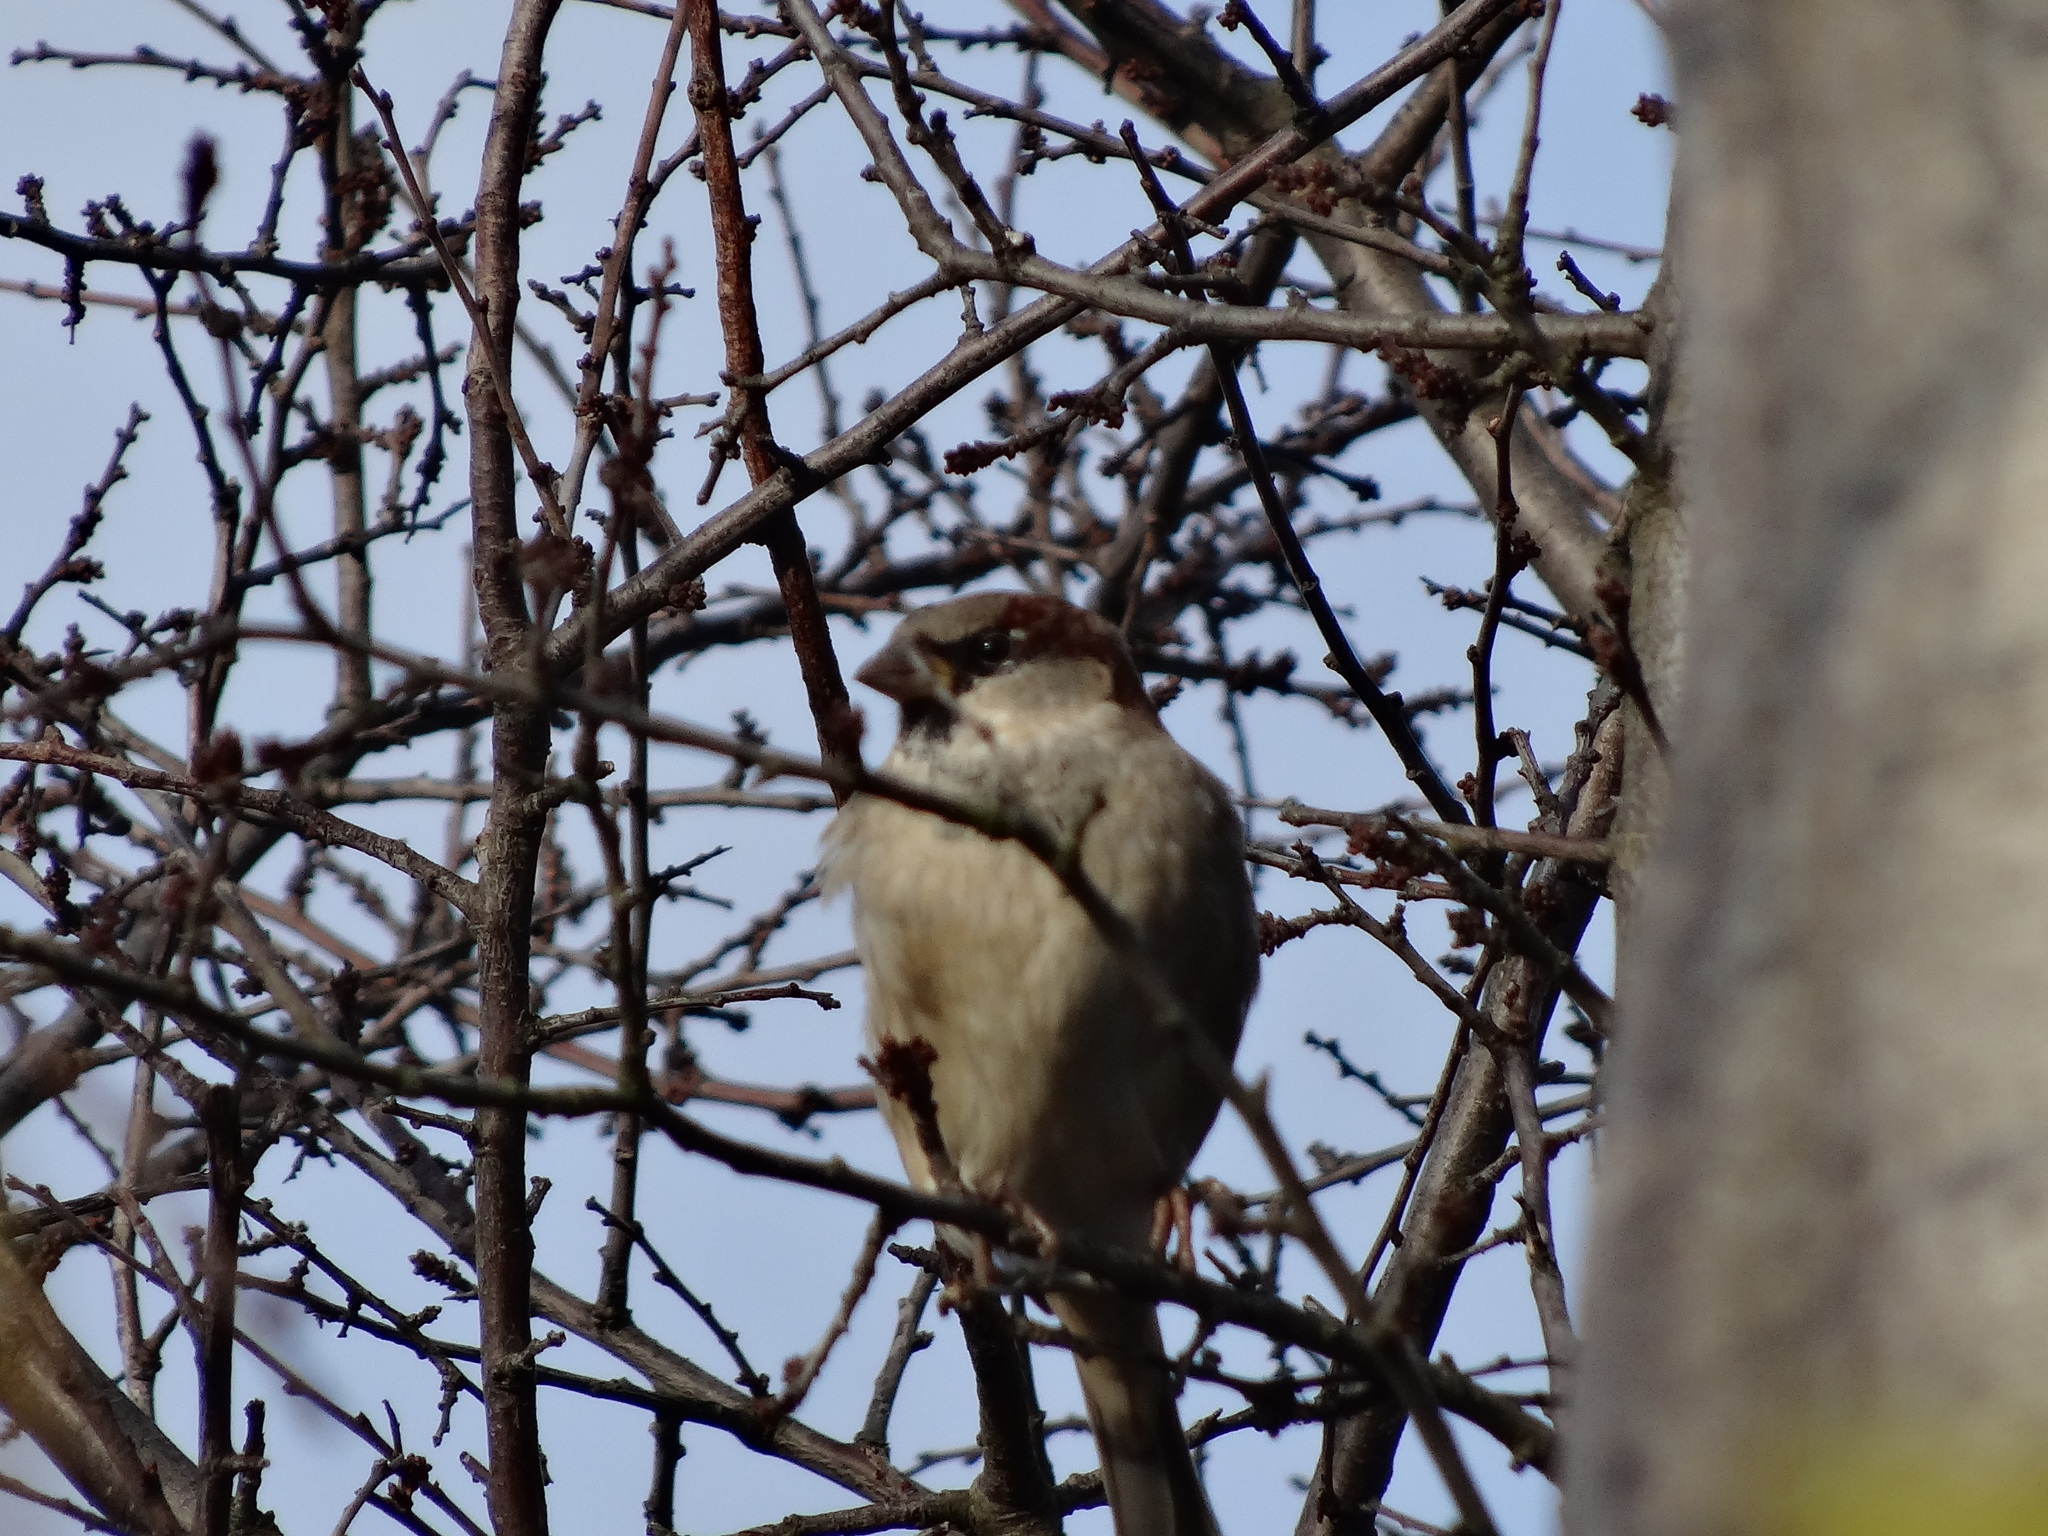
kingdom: Animalia
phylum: Chordata
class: Aves
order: Passeriformes
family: Passeridae
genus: Passer
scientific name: Passer domesticus
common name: House sparrow
